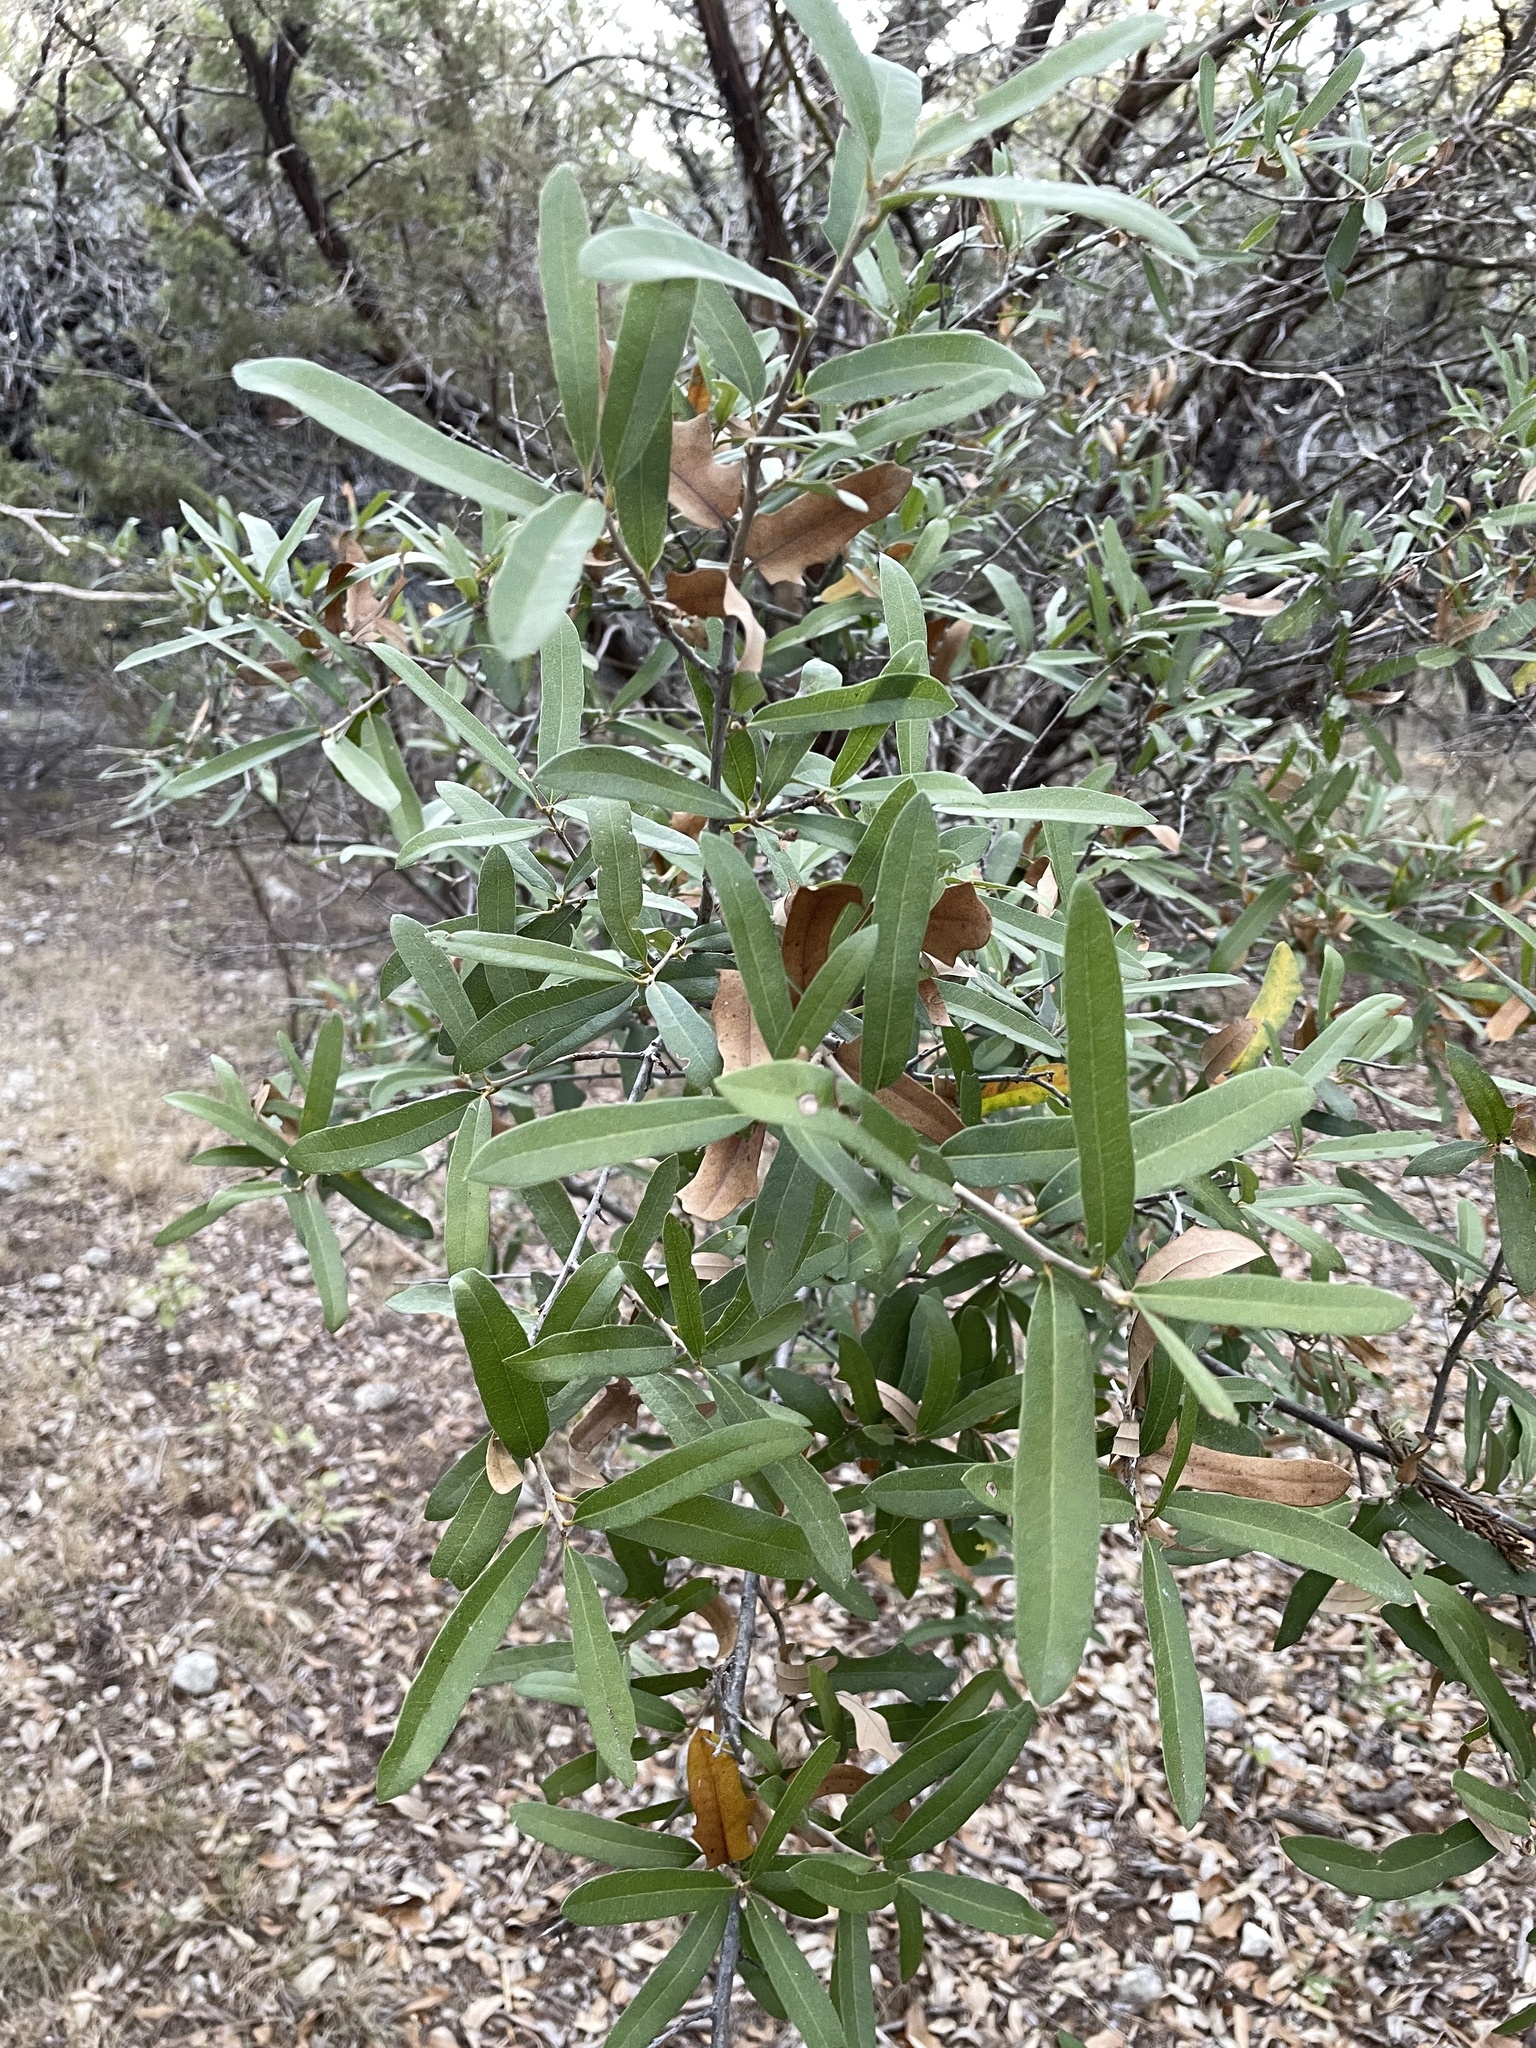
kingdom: Plantae
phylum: Tracheophyta
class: Magnoliopsida
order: Fagales
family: Fagaceae
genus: Quercus
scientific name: Quercus fusiformis
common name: Texas live oak
